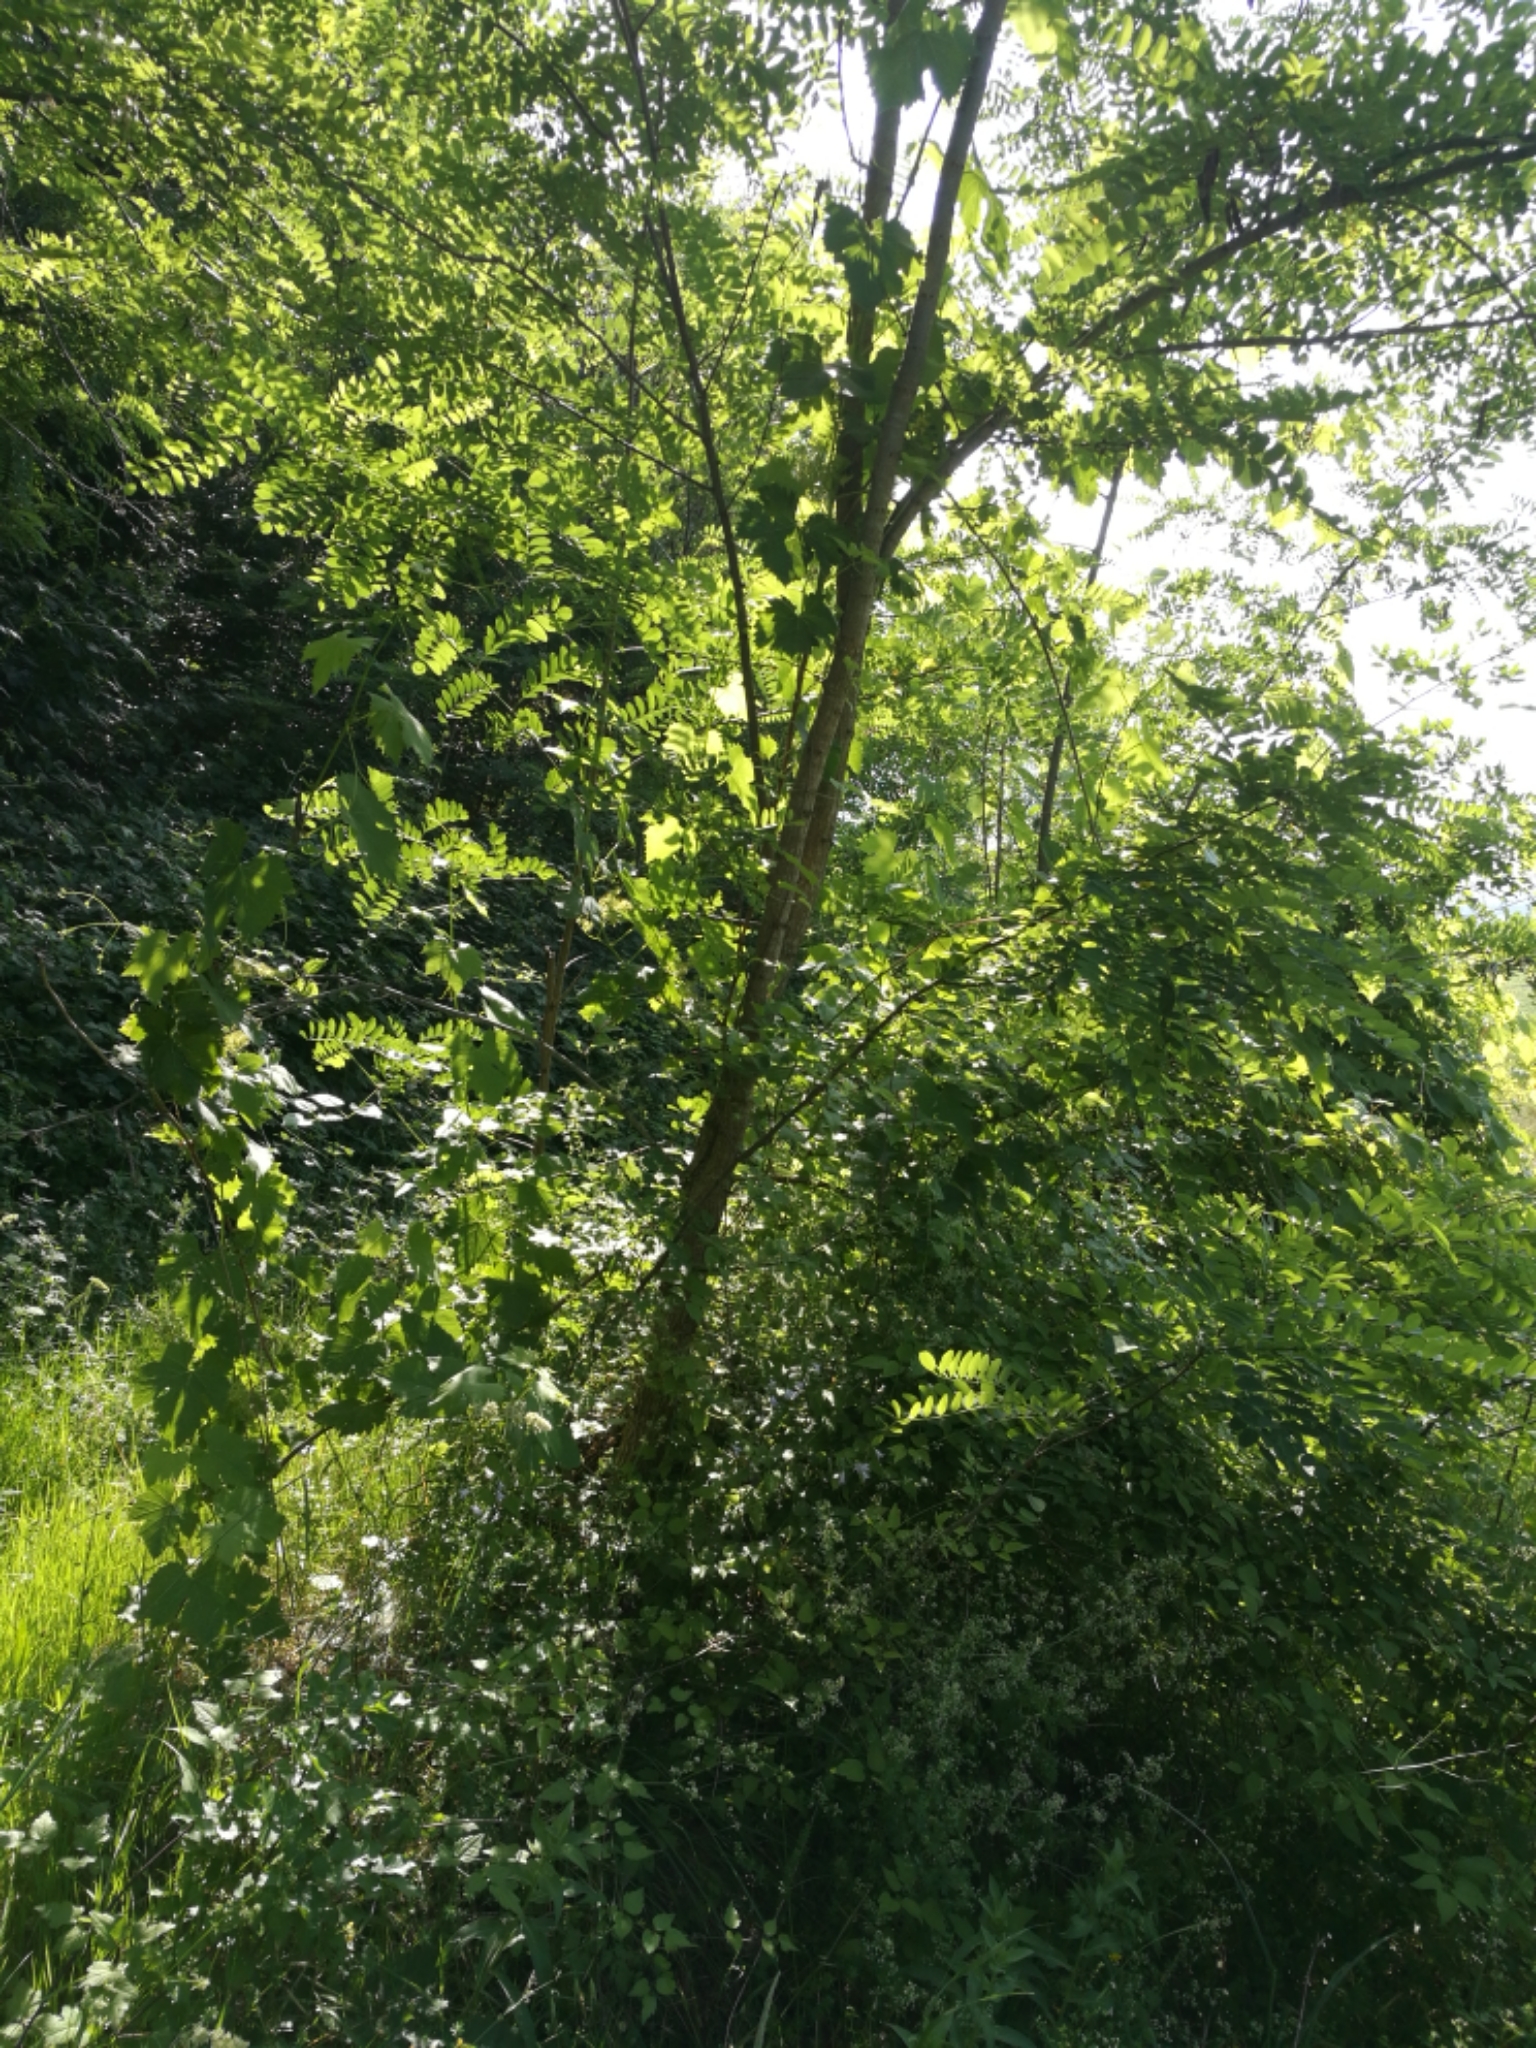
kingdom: Plantae
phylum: Tracheophyta
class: Magnoliopsida
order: Fabales
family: Fabaceae
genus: Robinia
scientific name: Robinia pseudoacacia
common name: Black locust
